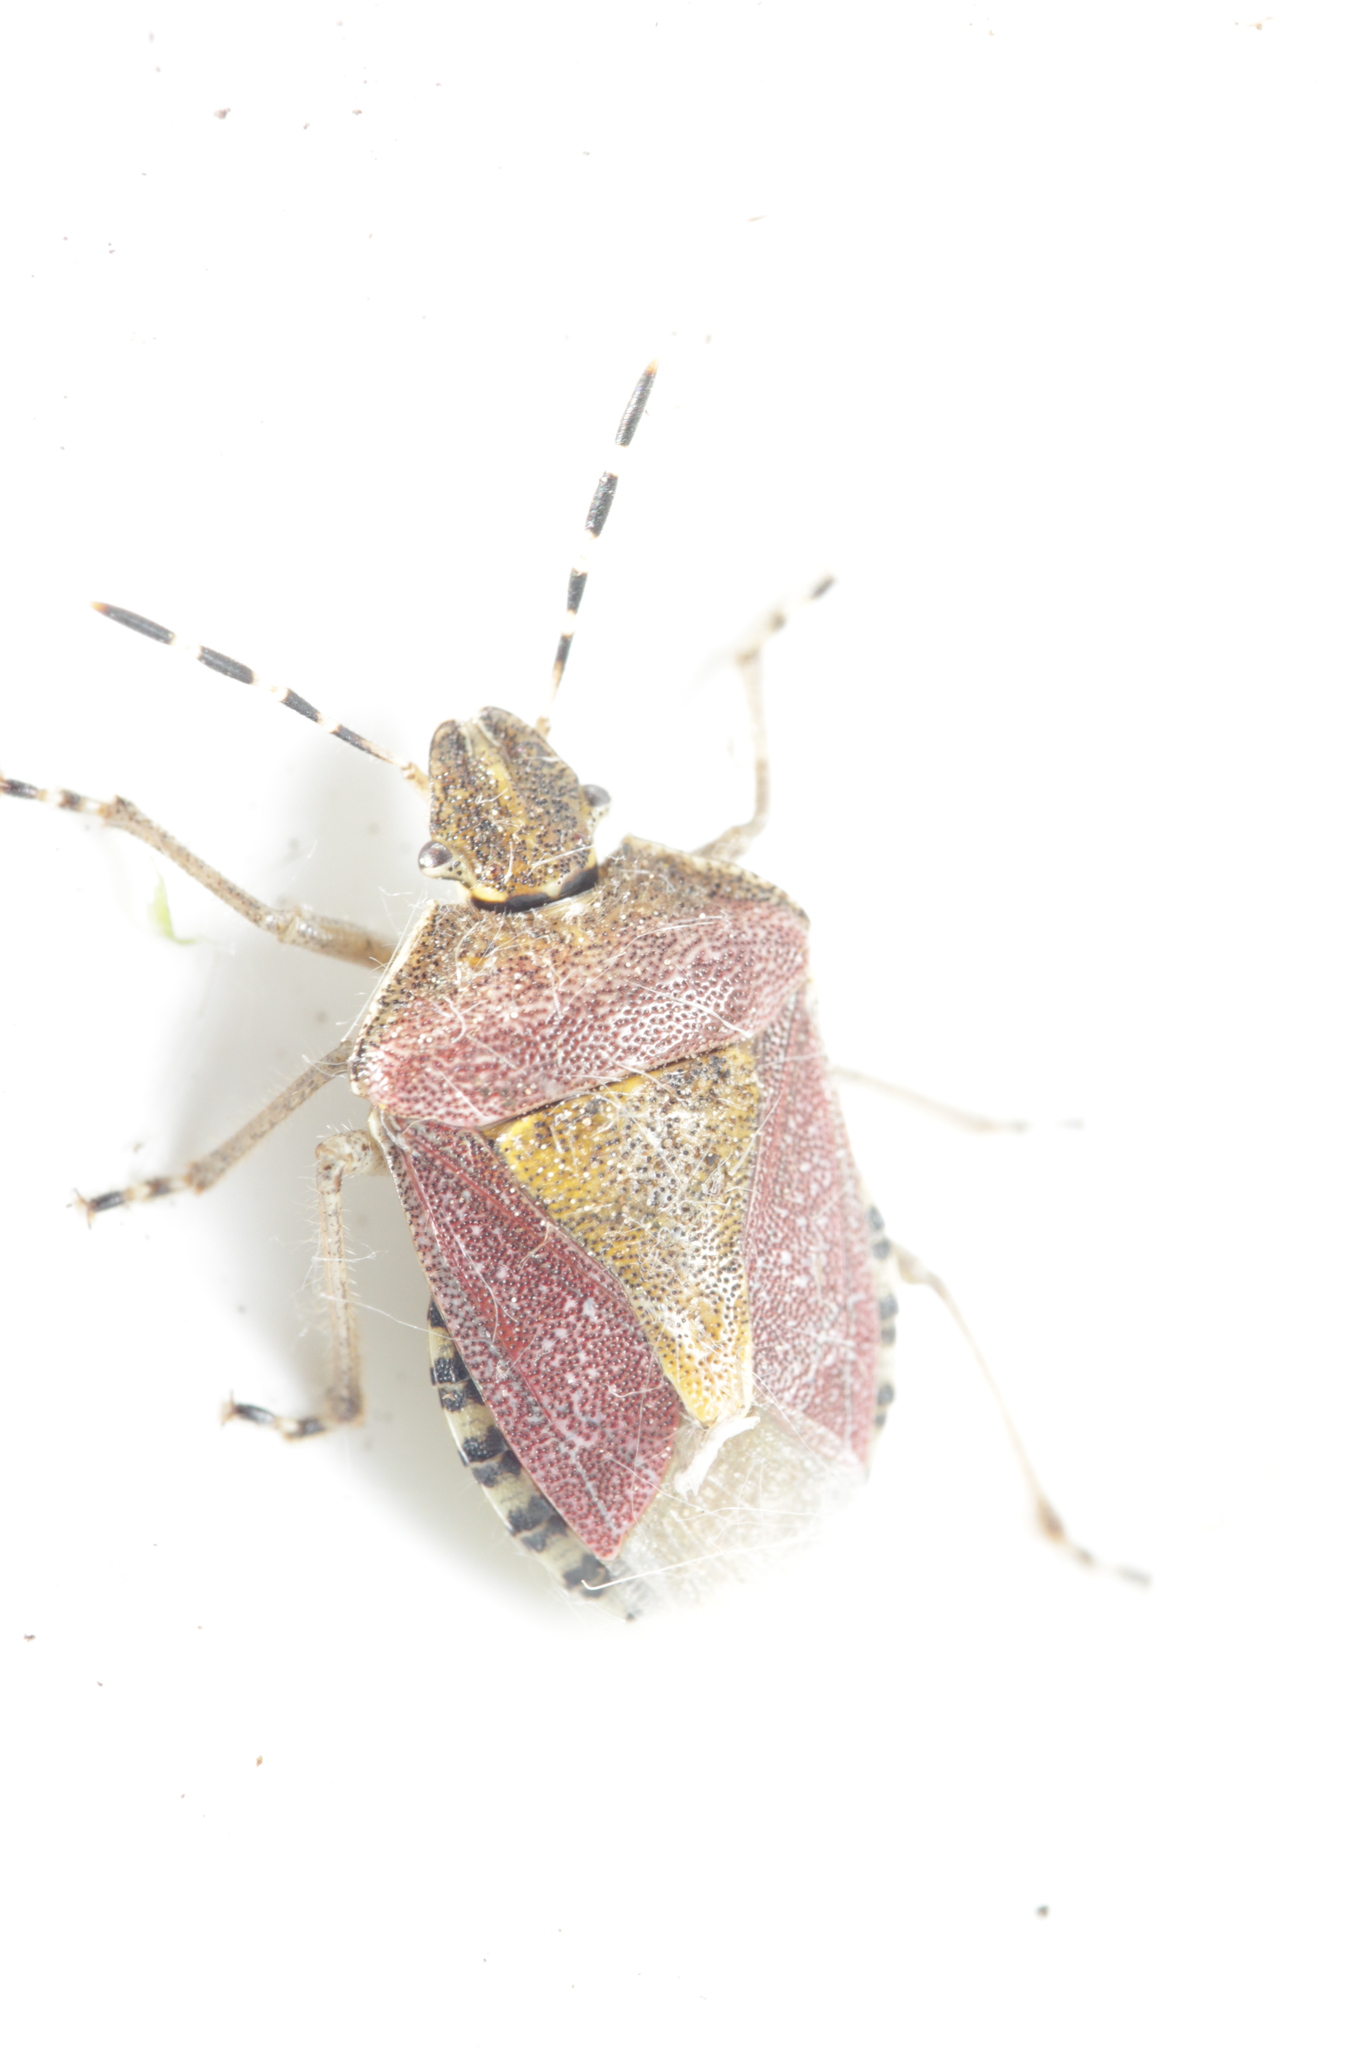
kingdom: Animalia
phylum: Arthropoda
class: Insecta
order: Hemiptera
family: Pentatomidae
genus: Dolycoris
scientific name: Dolycoris baccarum
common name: Sloe bug
